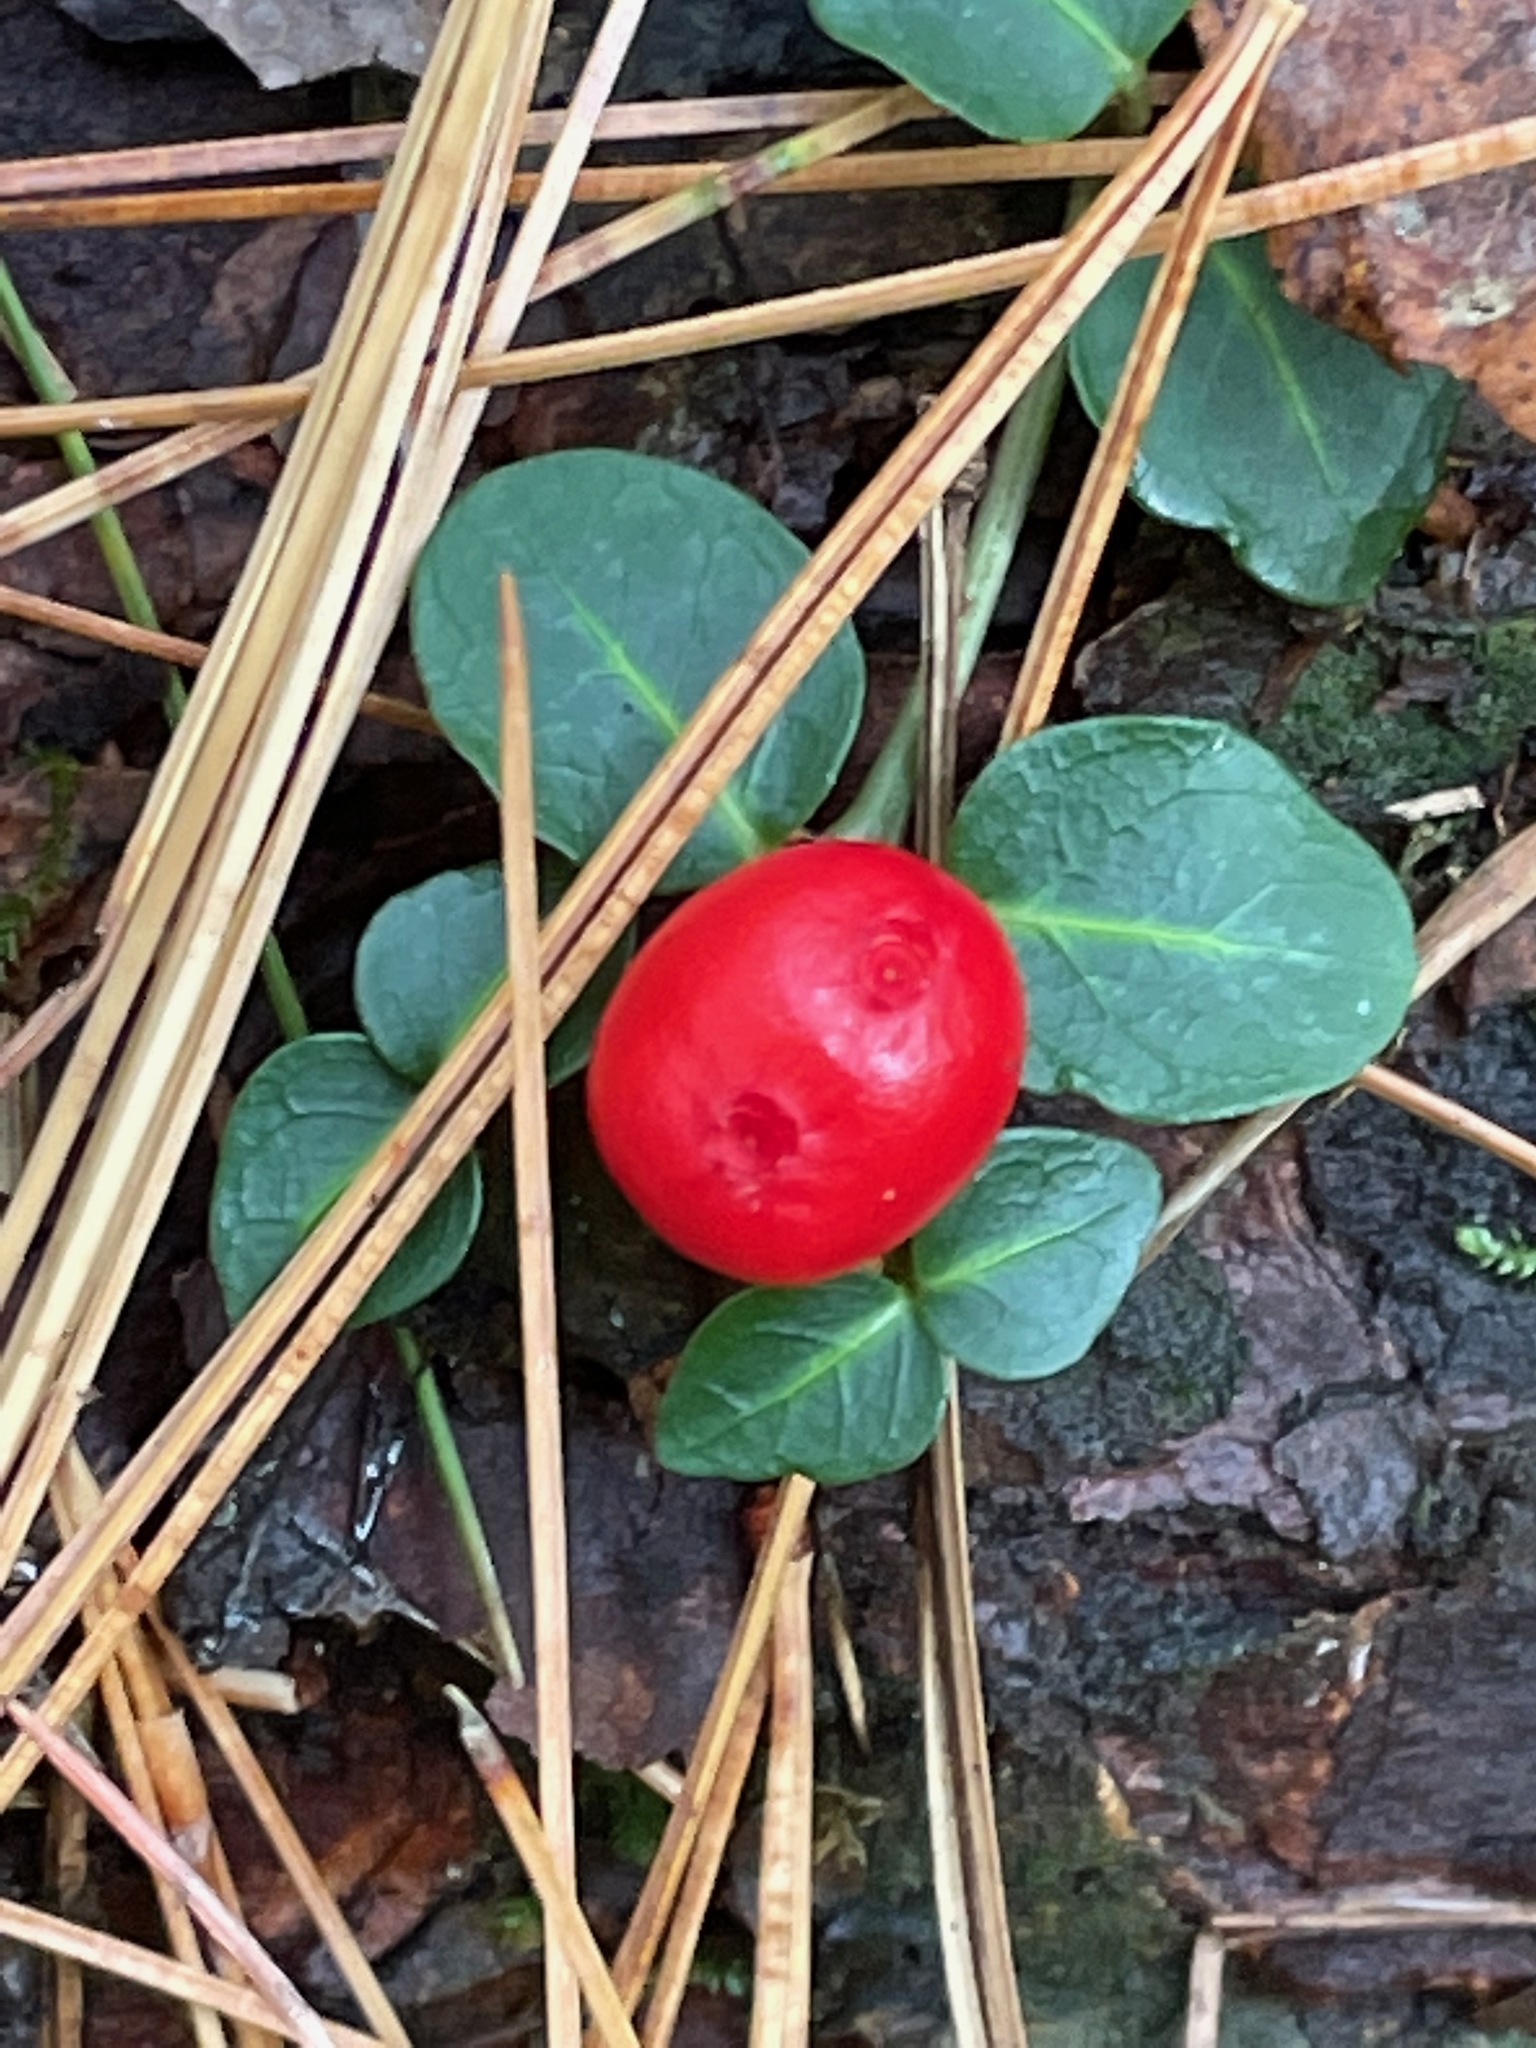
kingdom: Plantae
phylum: Tracheophyta
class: Magnoliopsida
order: Gentianales
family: Rubiaceae
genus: Mitchella
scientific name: Mitchella repens
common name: Partridge-berry
